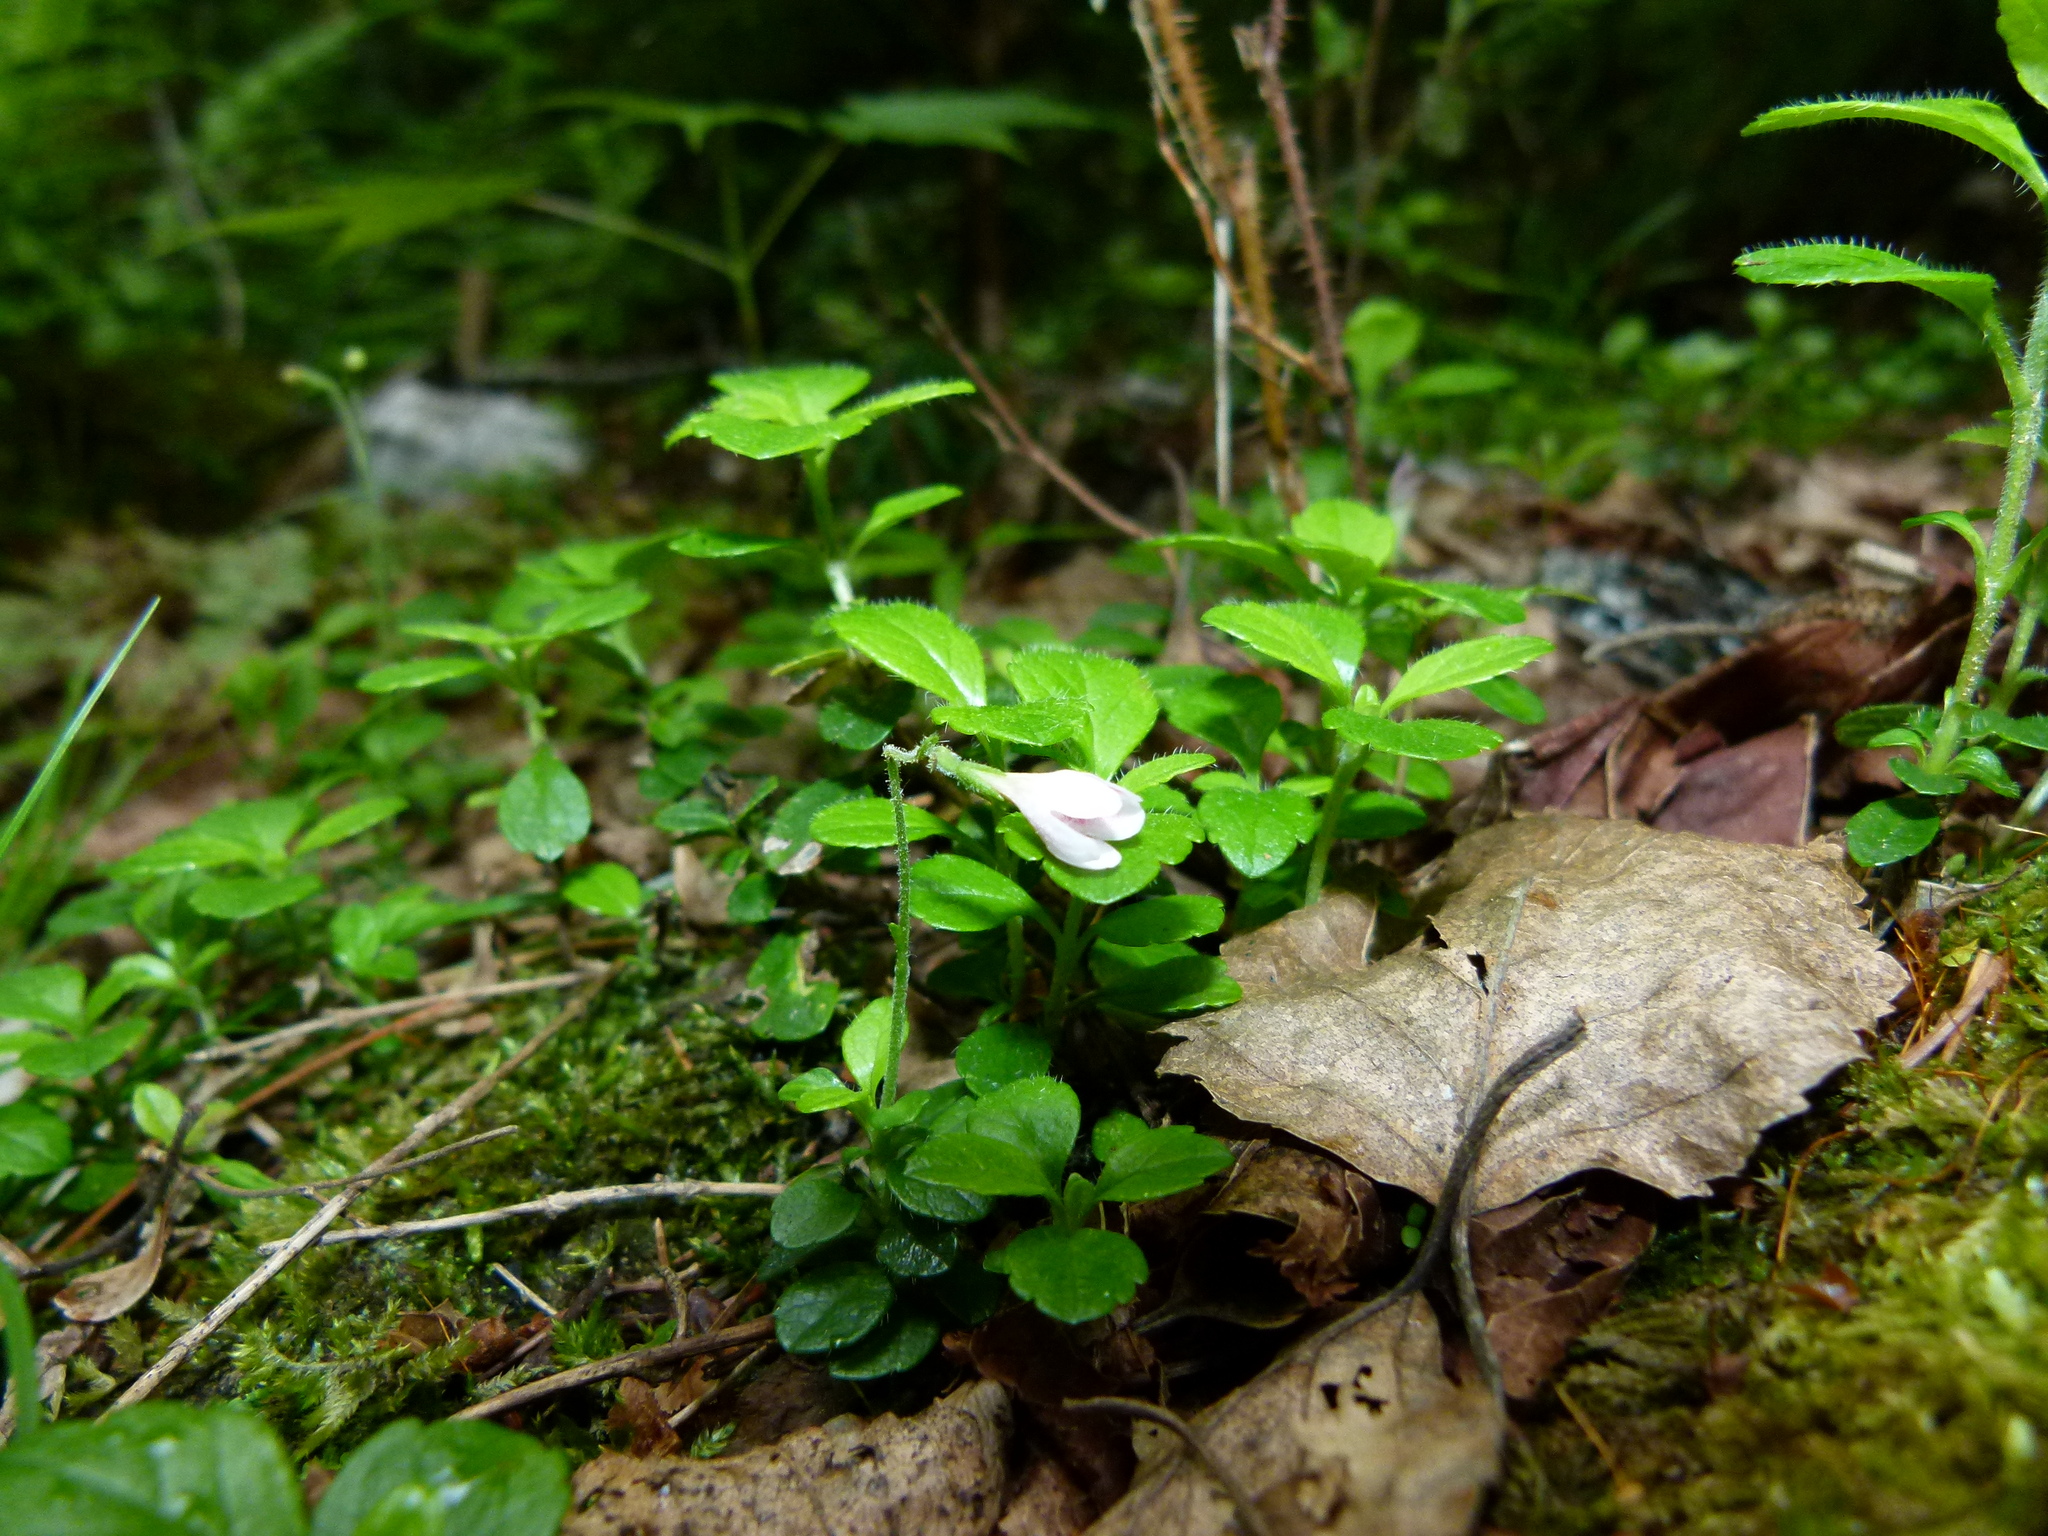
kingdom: Plantae
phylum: Tracheophyta
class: Magnoliopsida
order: Dipsacales
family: Caprifoliaceae
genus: Linnaea
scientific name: Linnaea borealis
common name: Twinflower
